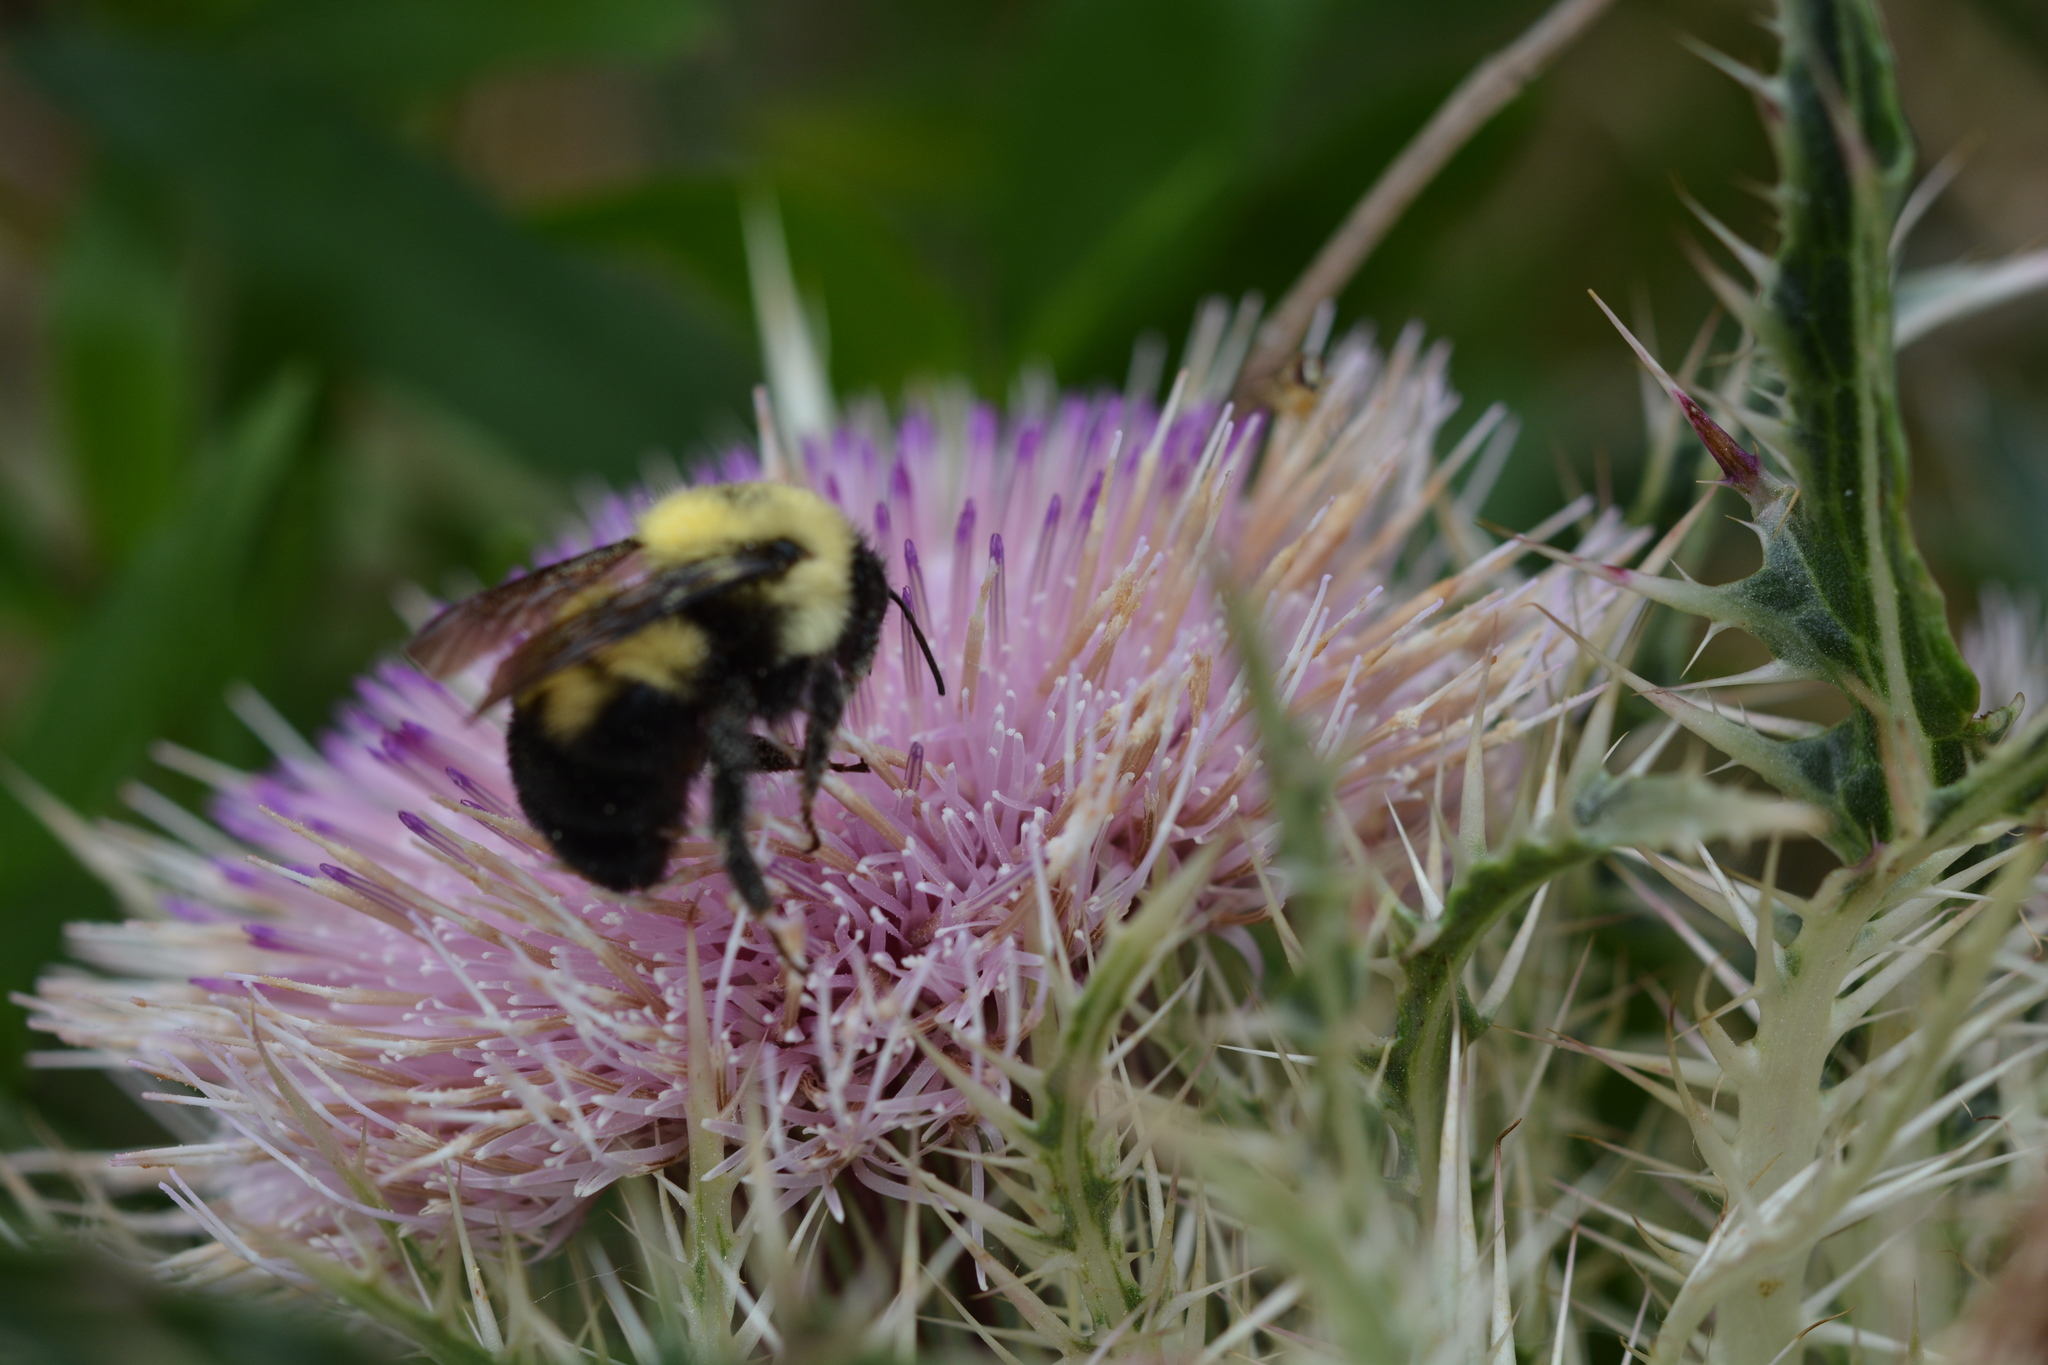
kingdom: Animalia
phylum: Arthropoda
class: Insecta
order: Hymenoptera
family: Apidae
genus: Bombus
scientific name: Bombus bimaculatus
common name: Two-spotted bumble bee
